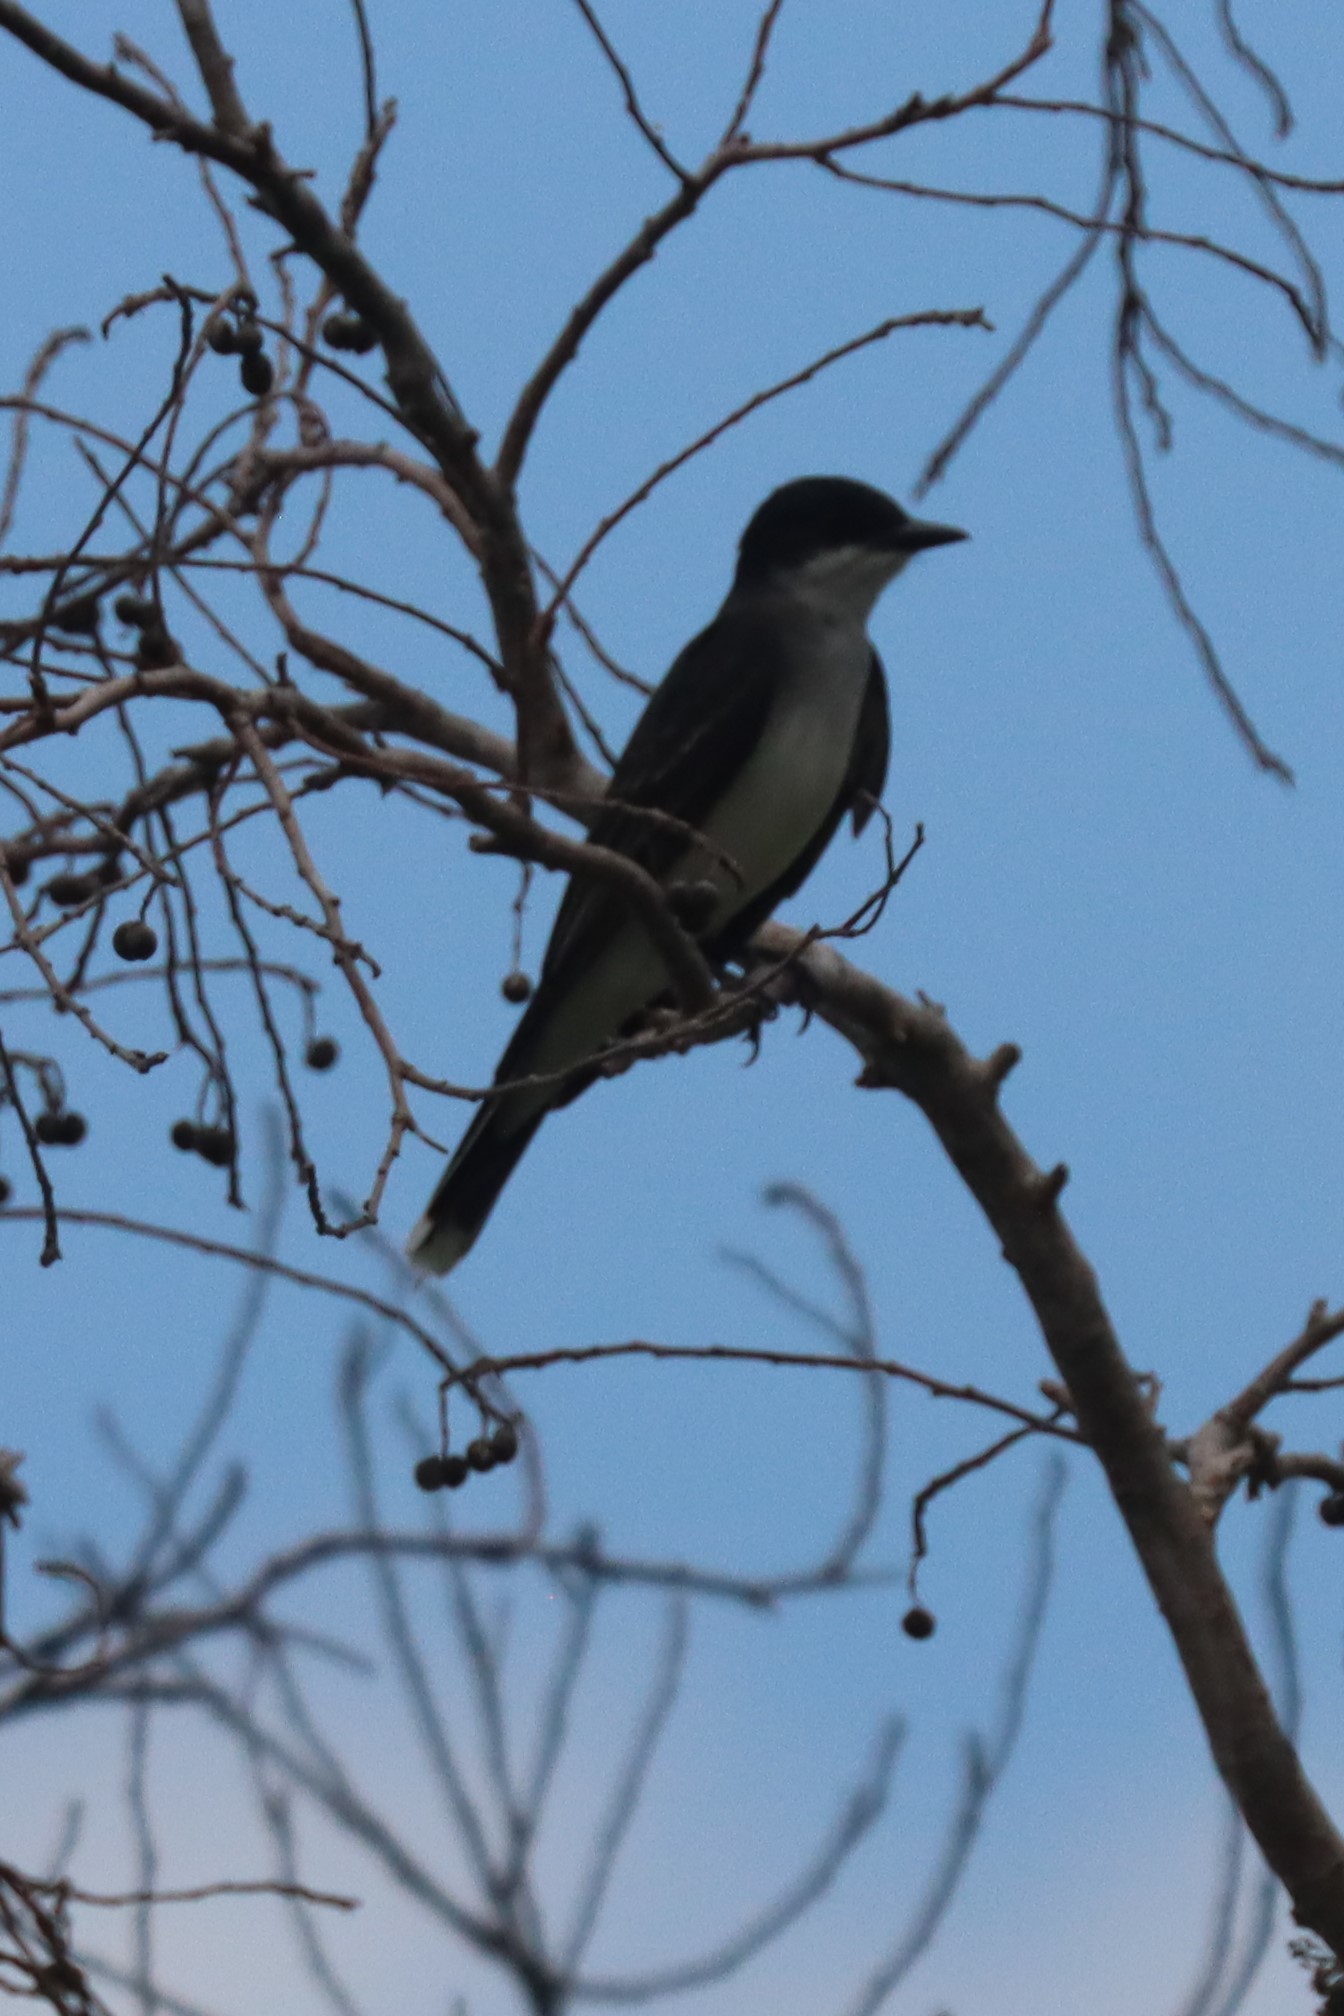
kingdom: Animalia
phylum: Chordata
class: Aves
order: Passeriformes
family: Tyrannidae
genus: Tyrannus
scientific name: Tyrannus tyrannus
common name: Eastern kingbird
